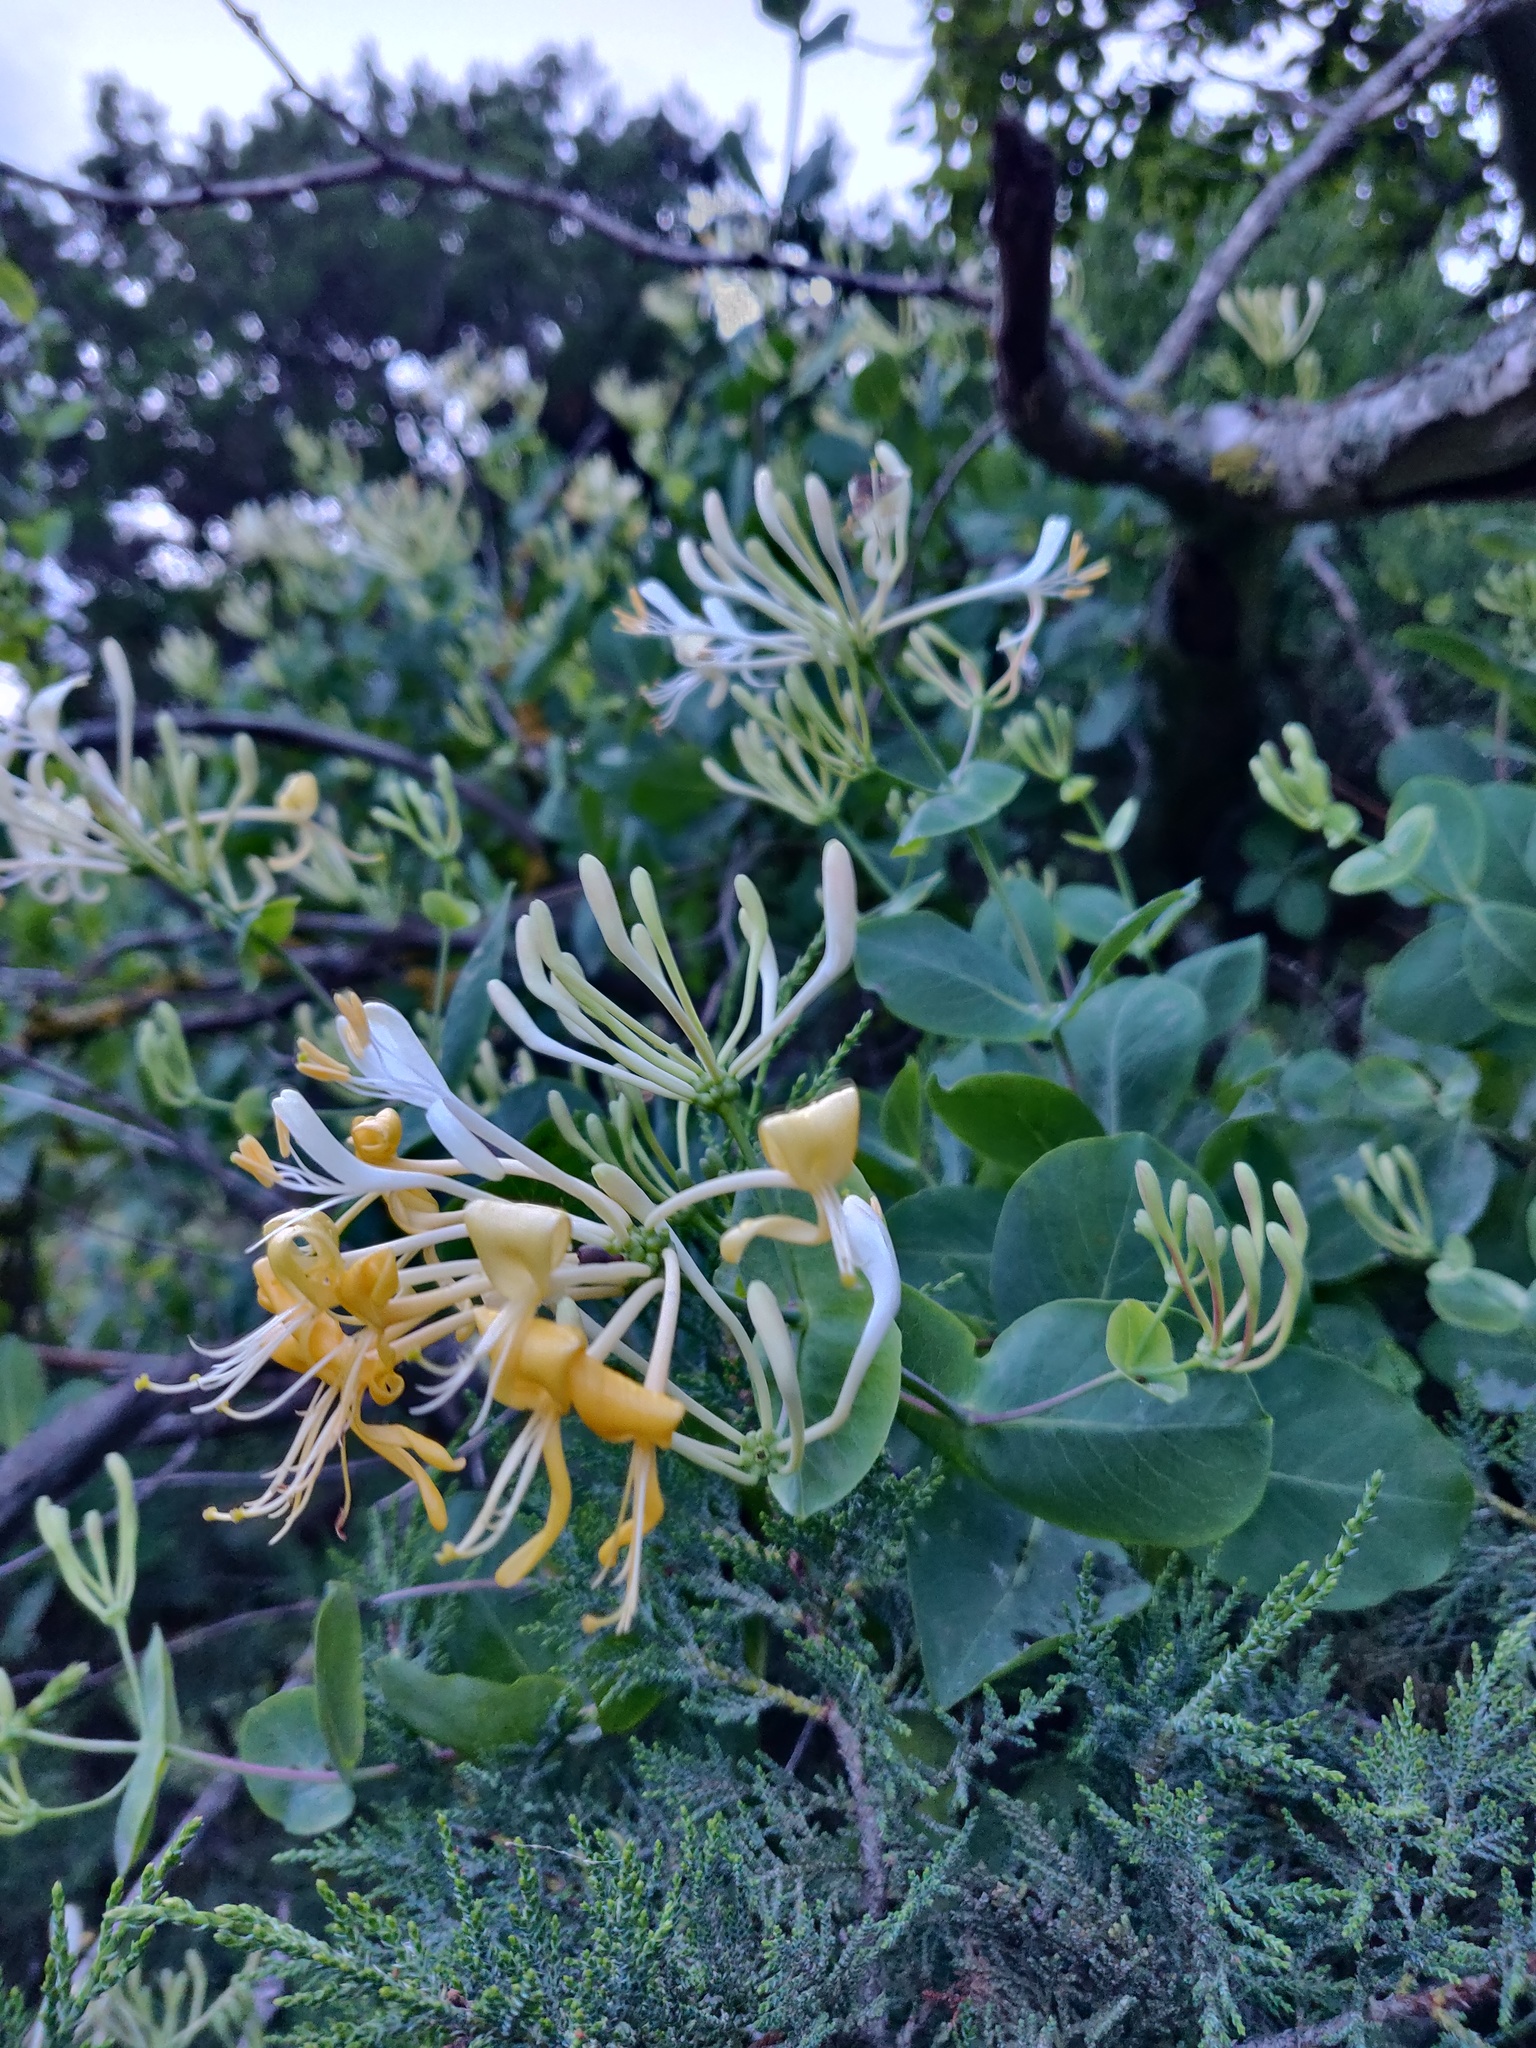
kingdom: Plantae
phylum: Tracheophyta
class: Magnoliopsida
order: Dipsacales
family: Caprifoliaceae
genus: Lonicera
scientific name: Lonicera etrusca
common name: Etruscan honeysuckle
